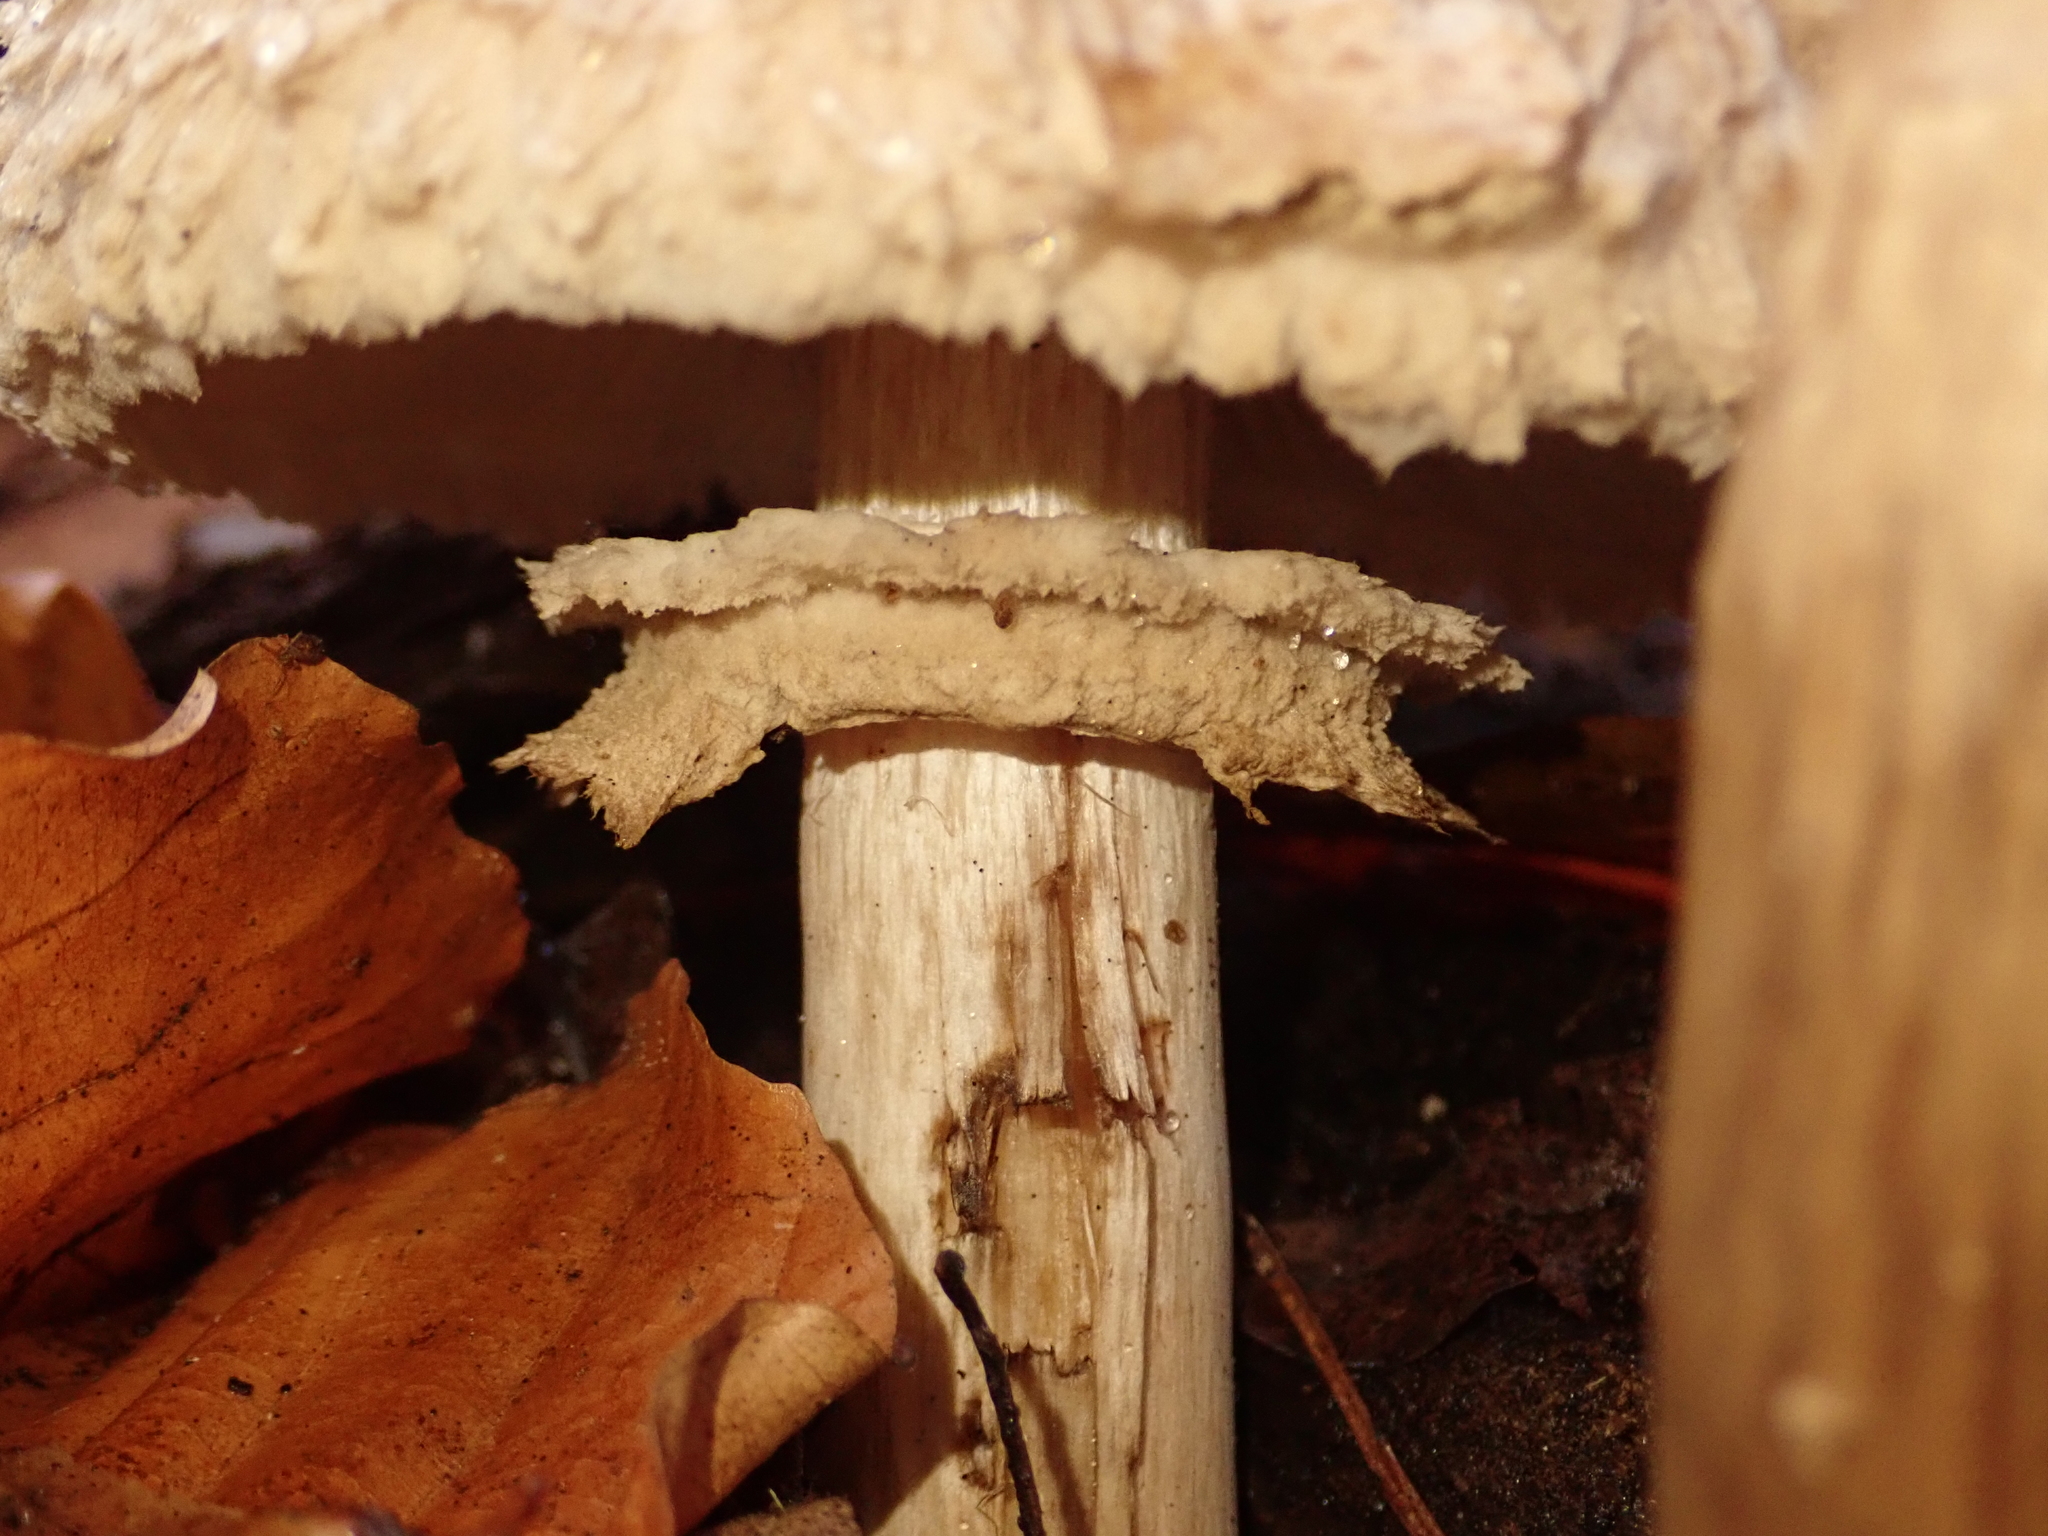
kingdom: Fungi
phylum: Basidiomycota
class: Agaricomycetes
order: Agaricales
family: Agaricaceae
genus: Chlorophyllum
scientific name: Chlorophyllum rhacodes
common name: Shaggy parasol
